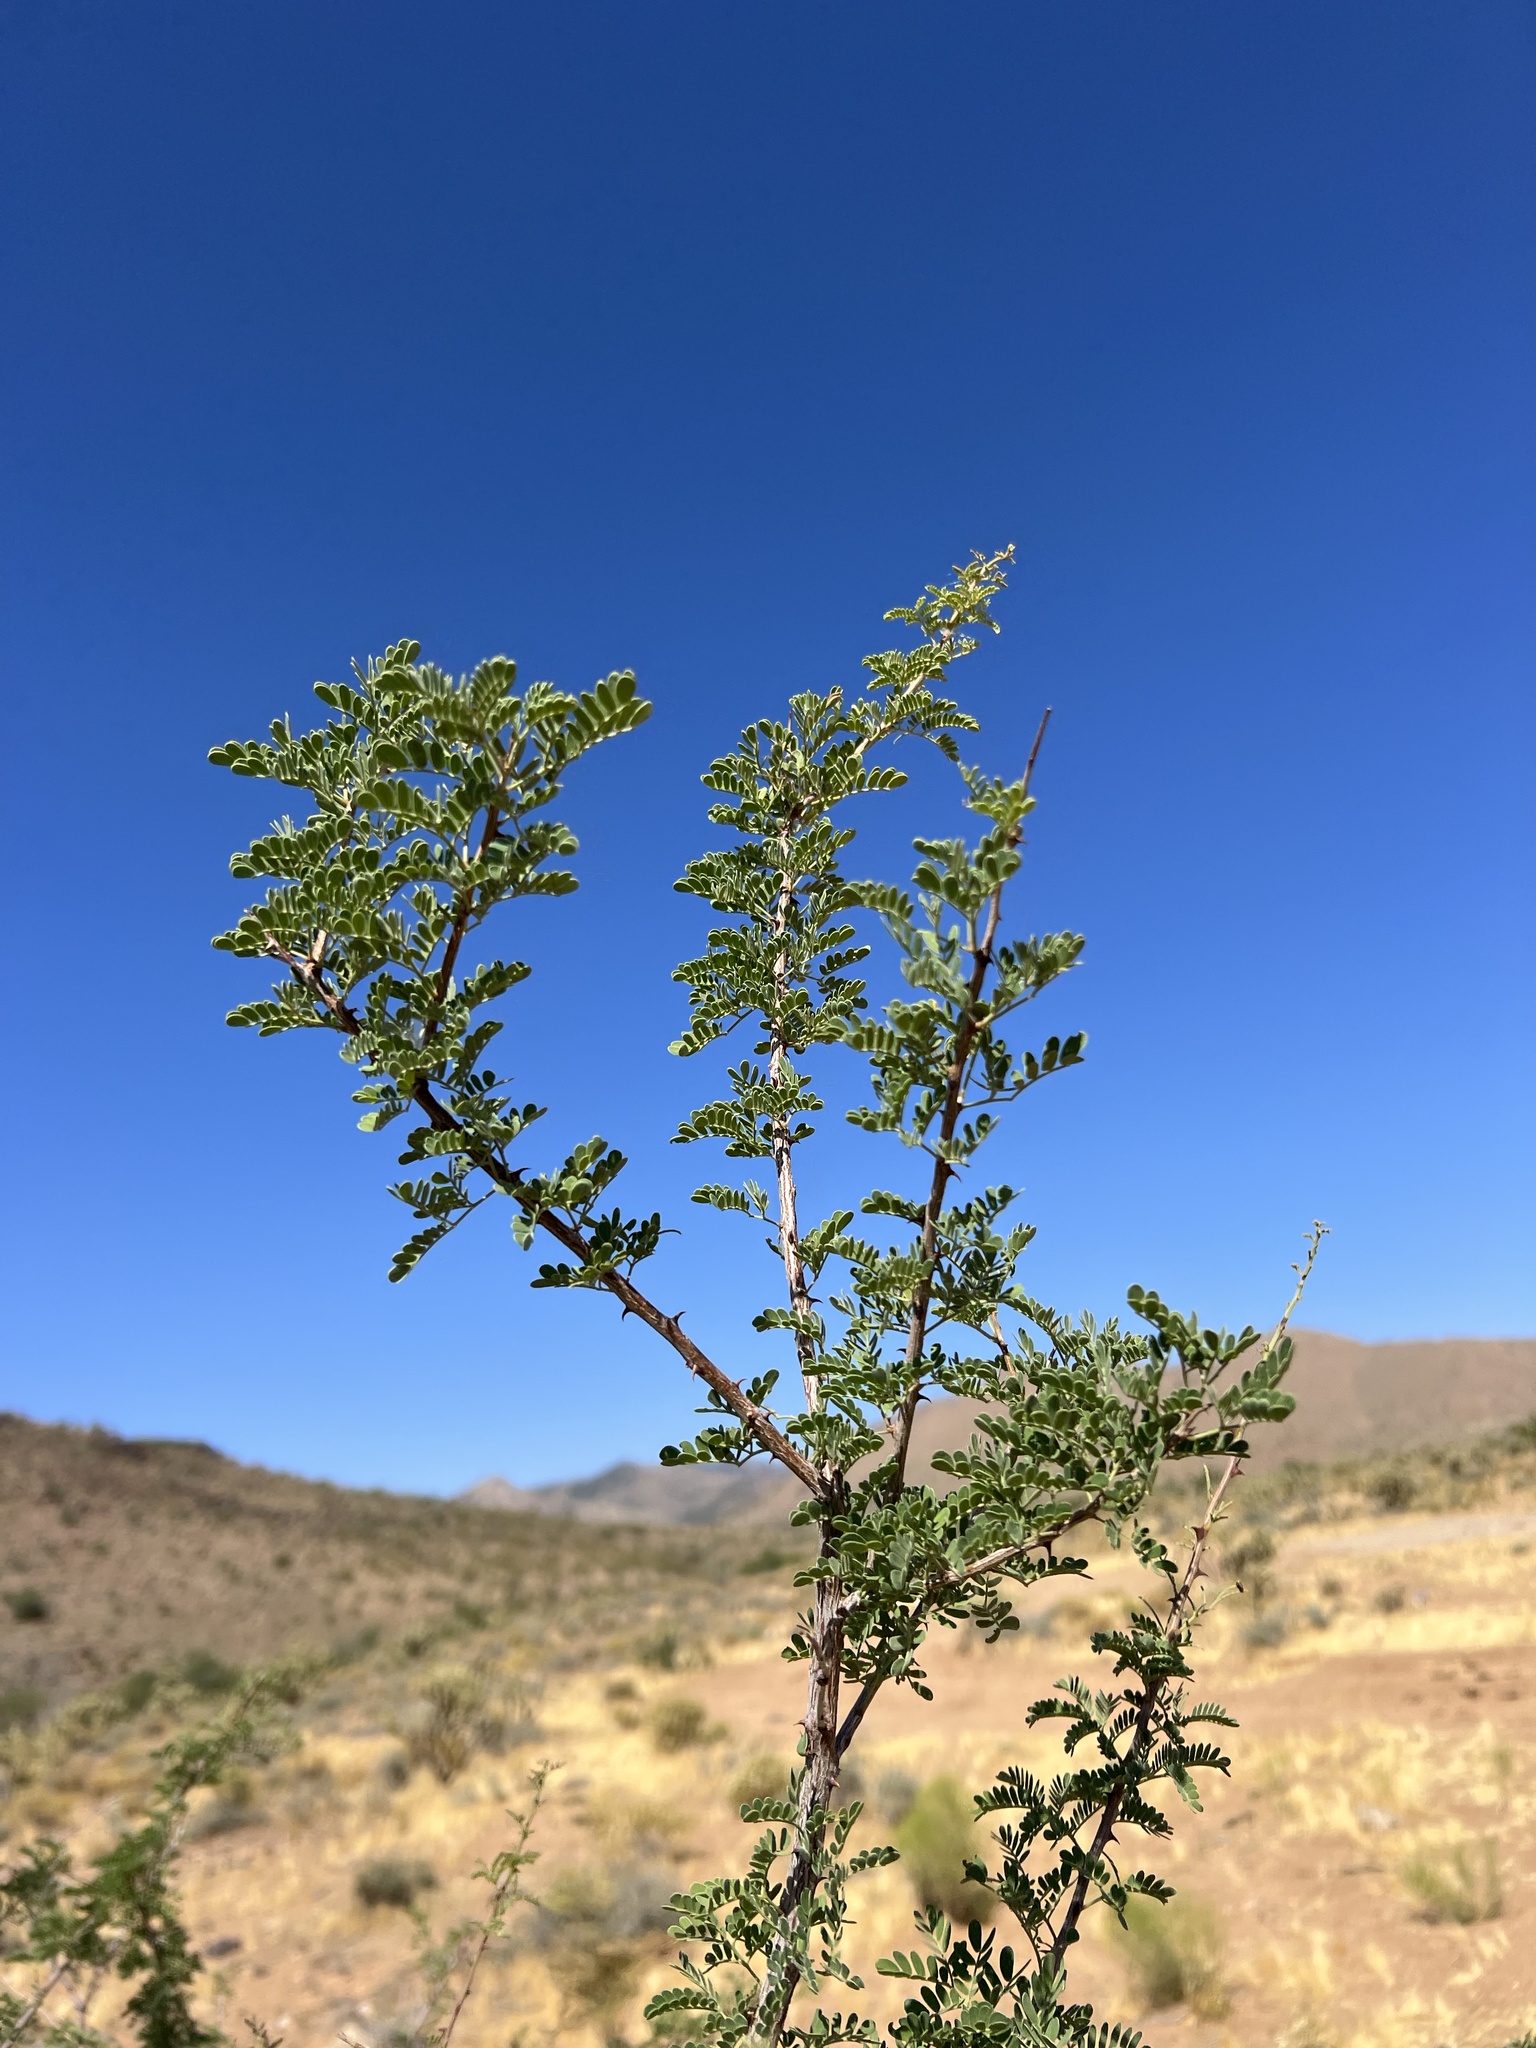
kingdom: Plantae
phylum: Tracheophyta
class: Magnoliopsida
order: Fabales
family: Fabaceae
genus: Senegalia
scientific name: Senegalia greggii
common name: Texas-mimosa
